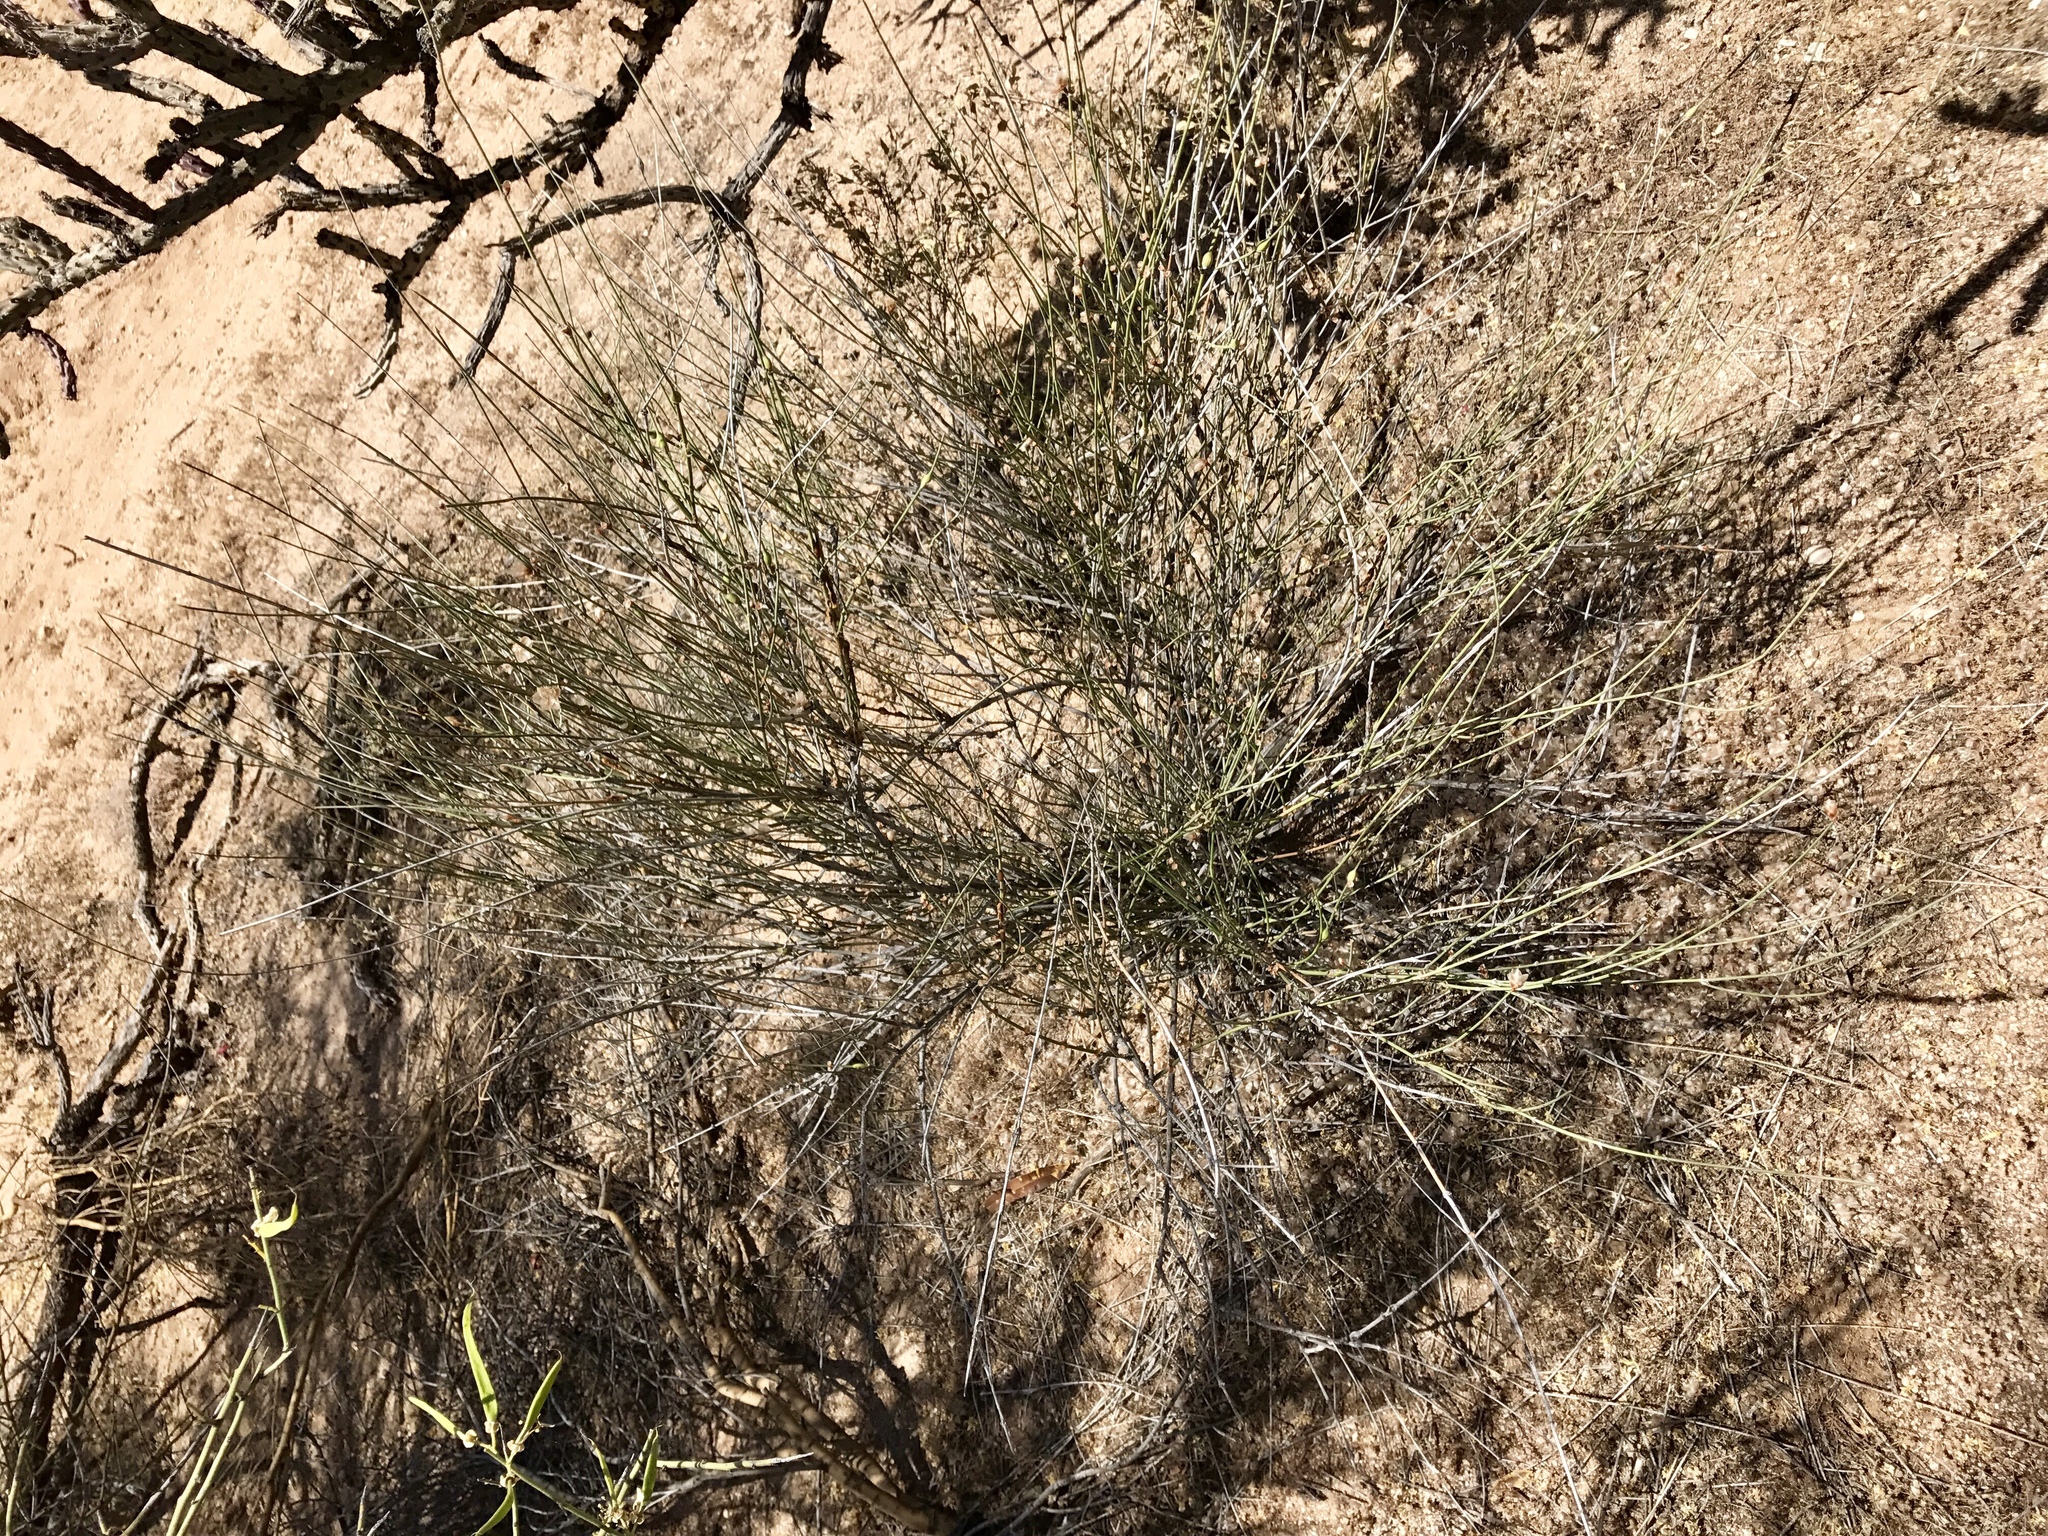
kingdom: Plantae
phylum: Tracheophyta
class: Gnetopsida
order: Ephedrales
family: Ephedraceae
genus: Ephedra
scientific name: Ephedra trifurca
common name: Mexican-tea
